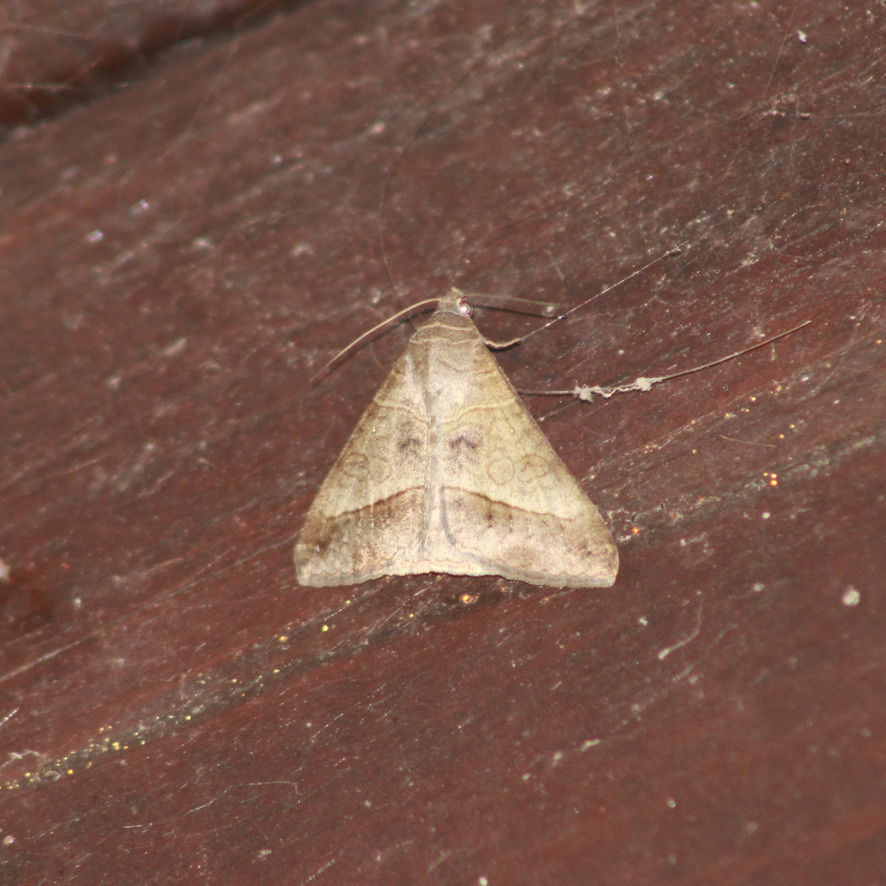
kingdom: Animalia
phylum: Arthropoda
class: Insecta
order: Lepidoptera
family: Erebidae
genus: Mocis
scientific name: Mocis latipes
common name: Striped grass looper
